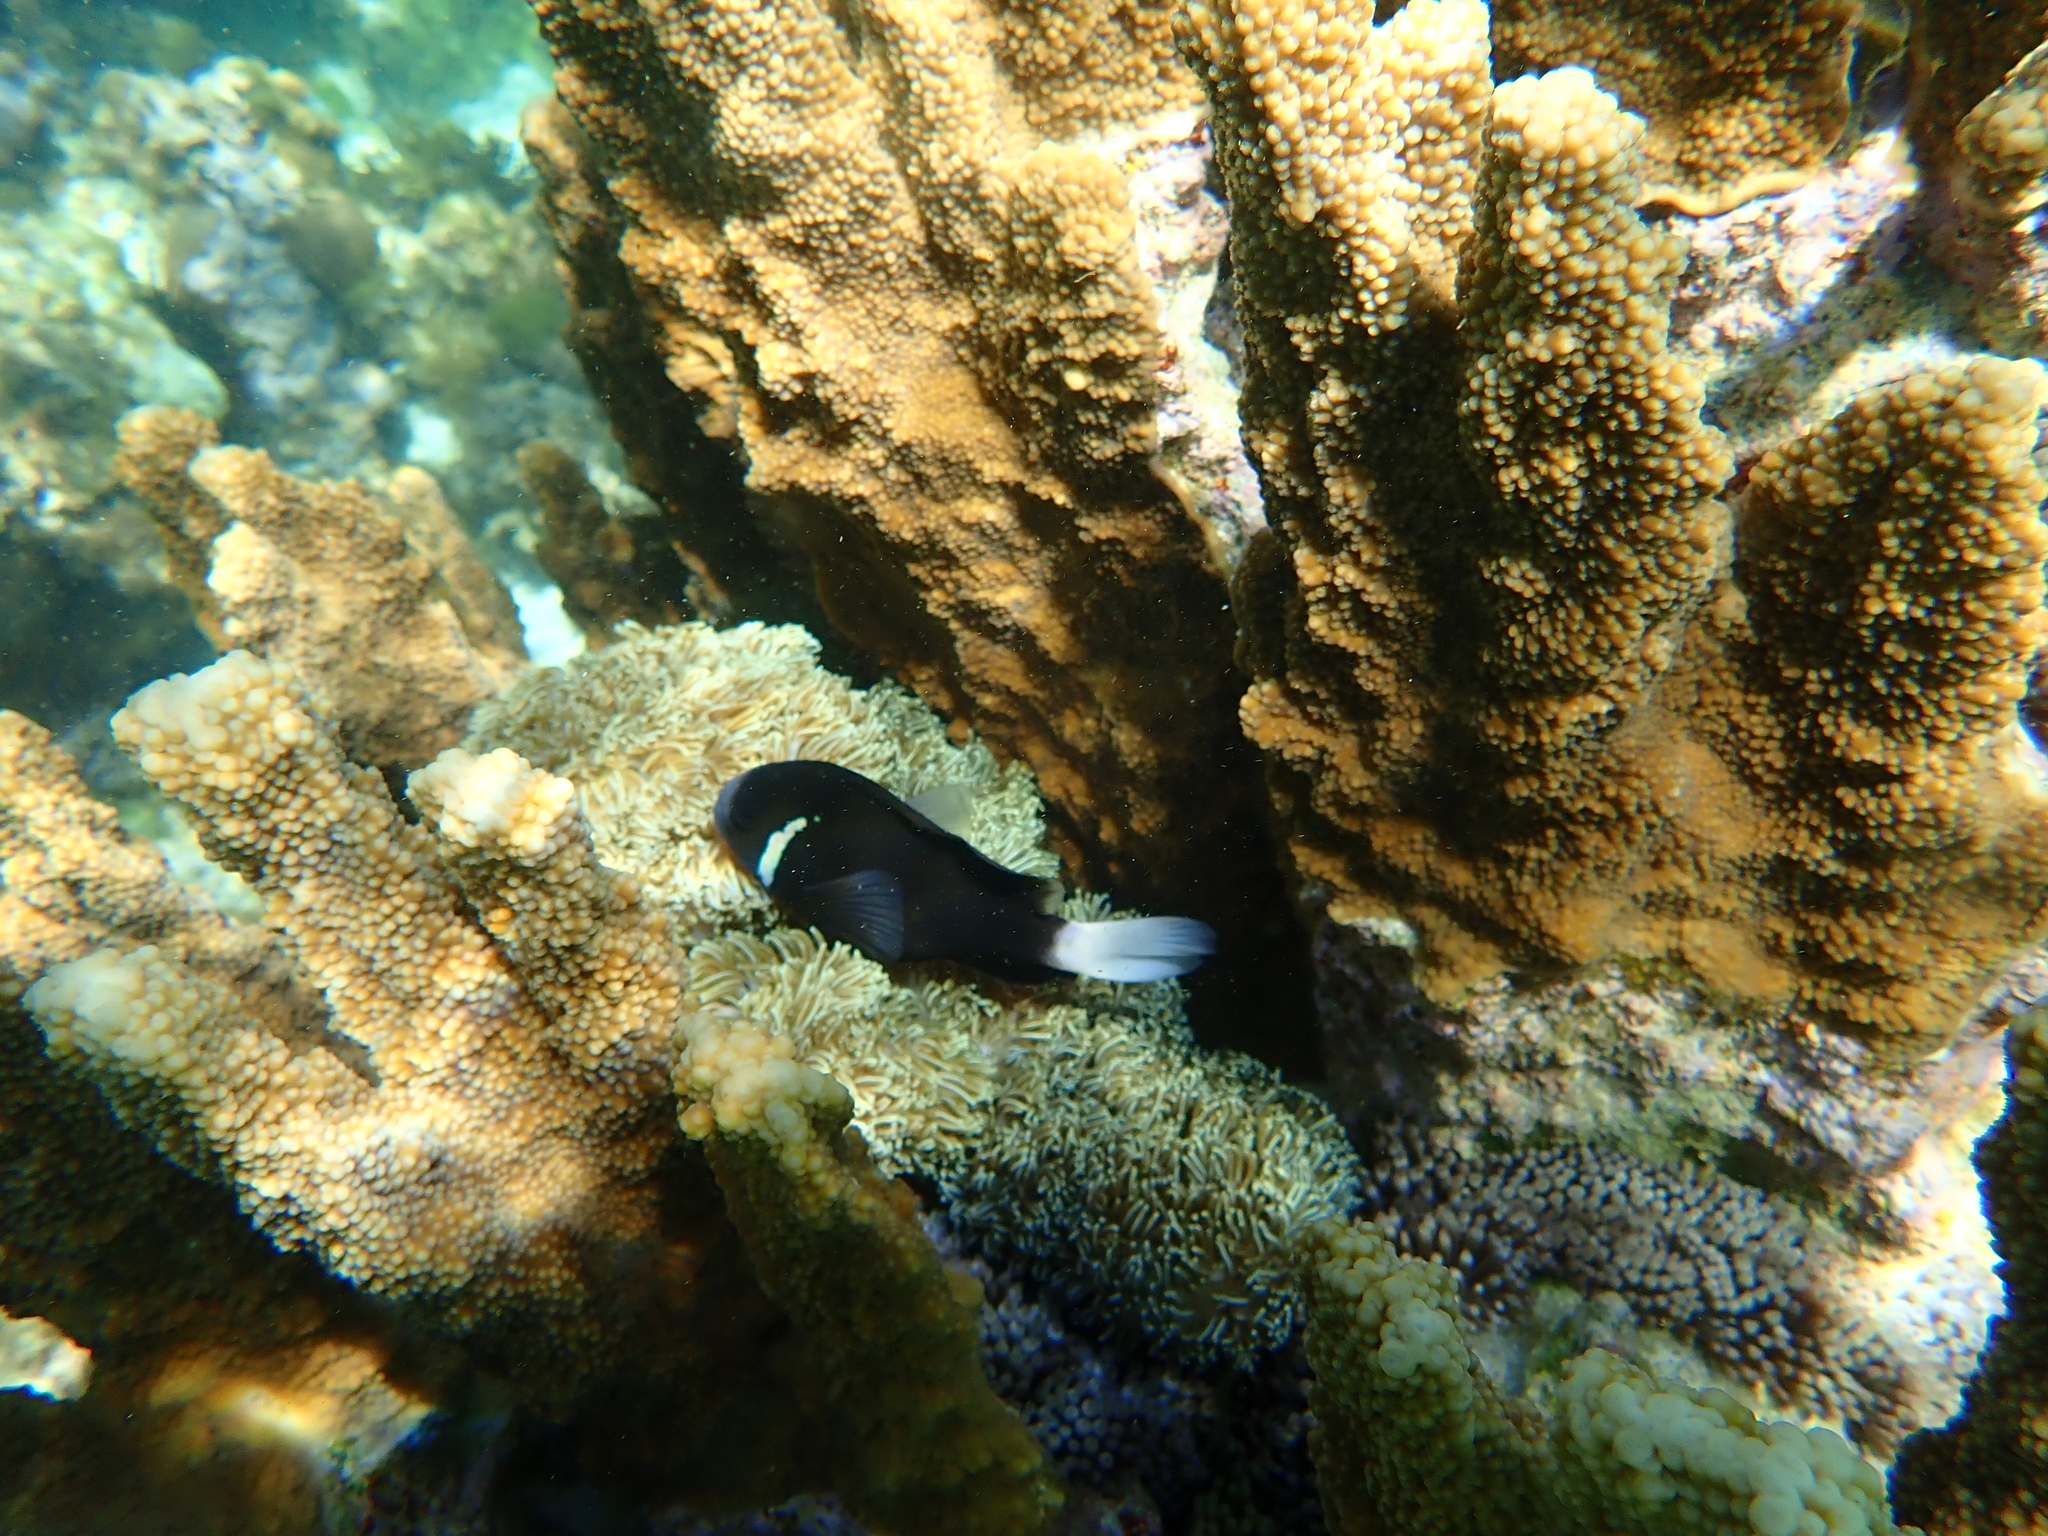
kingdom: Animalia
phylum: Cnidaria
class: Anthozoa
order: Scleractinia
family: Acroporidae
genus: Isopora
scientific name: Isopora elizabethensis
